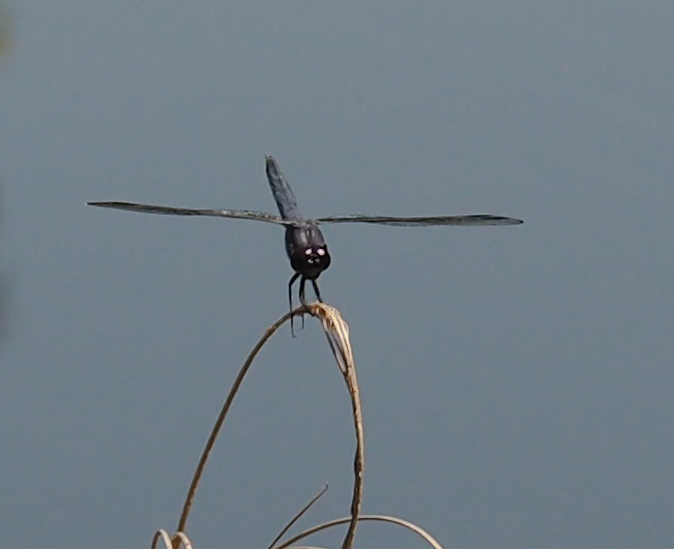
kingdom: Animalia
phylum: Arthropoda
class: Insecta
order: Odonata
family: Libellulidae
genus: Libellula
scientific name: Libellula incesta
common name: Slaty skimmer
